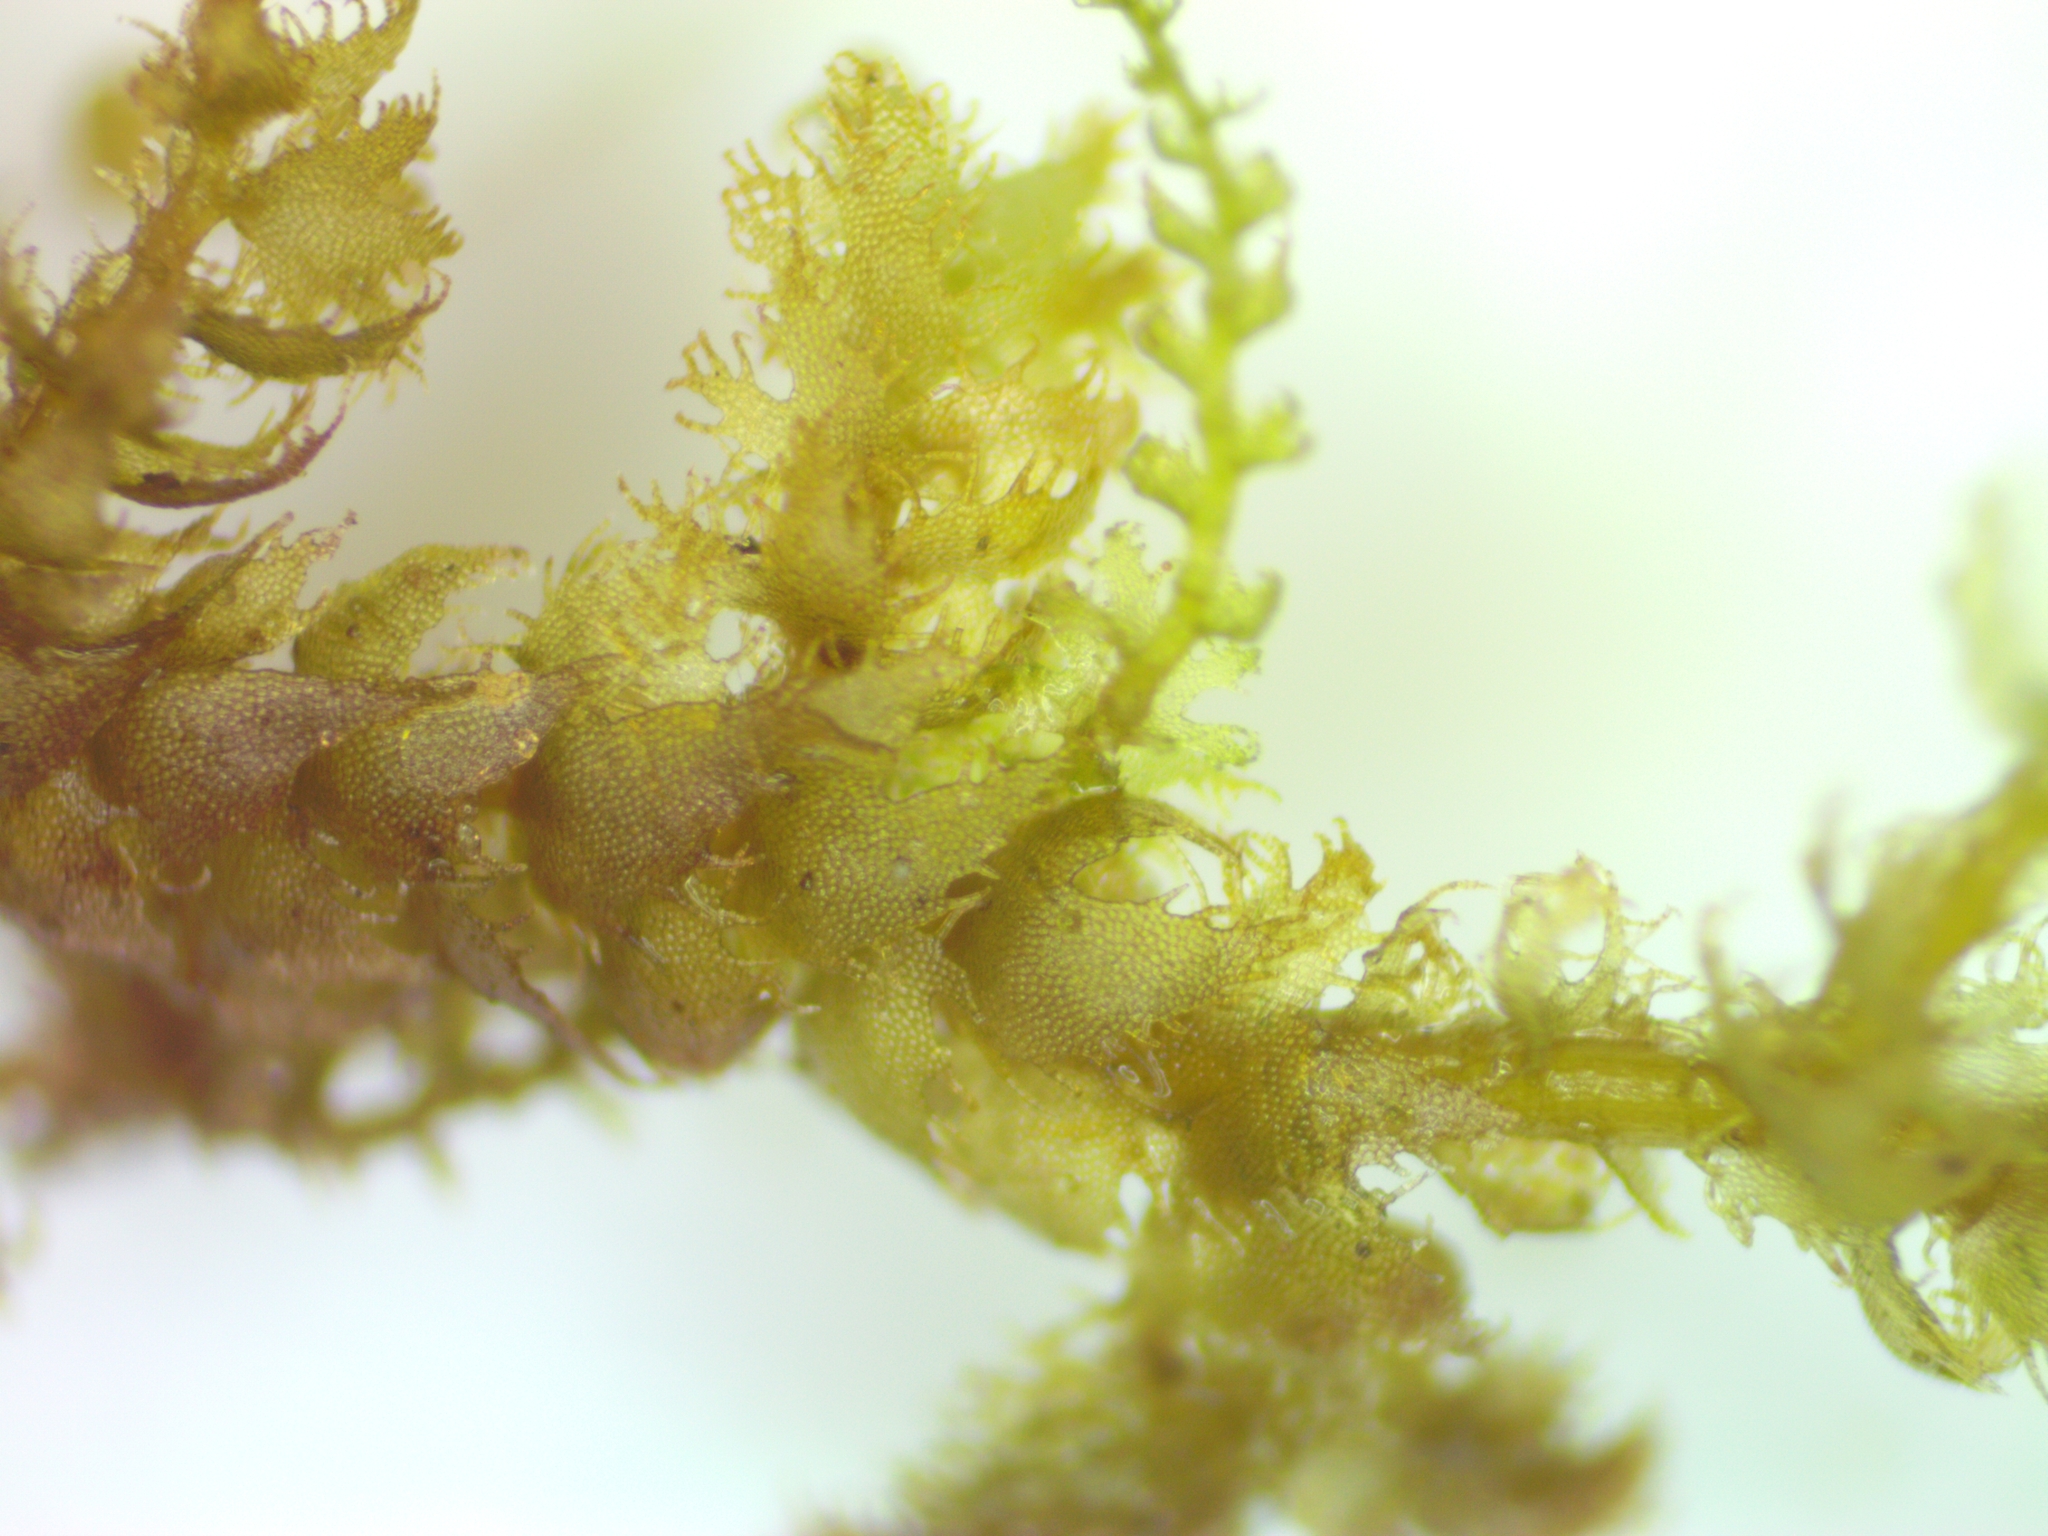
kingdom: Plantae
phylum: Marchantiophyta
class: Jungermanniopsida
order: Ptilidiales
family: Ptilidiaceae
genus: Ptilidium
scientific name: Ptilidium ciliare
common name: Ciliate fringewort
